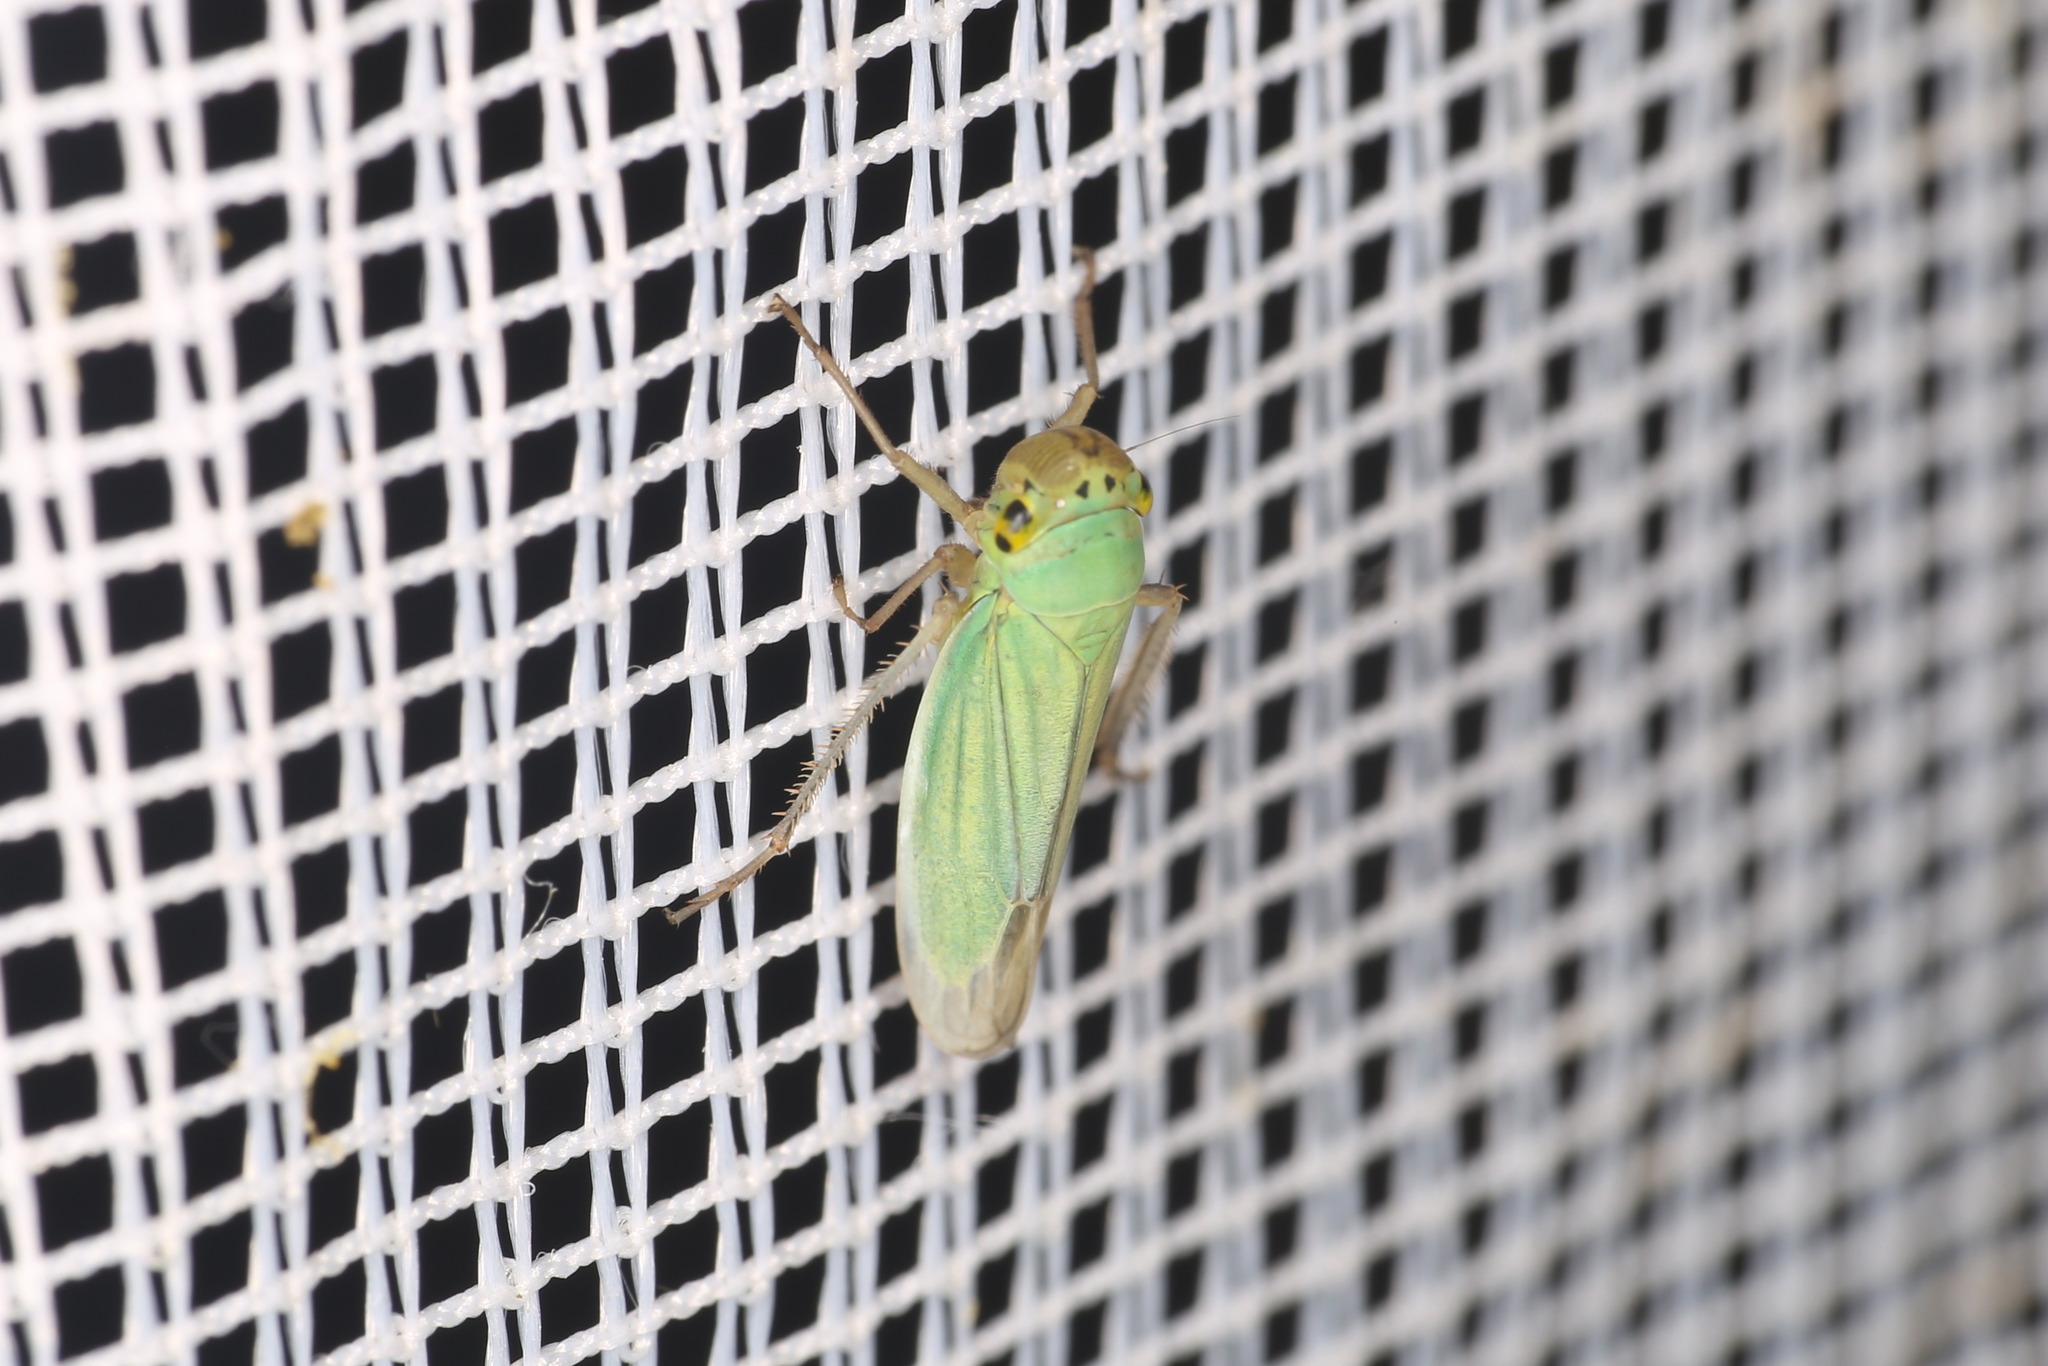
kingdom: Animalia
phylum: Arthropoda
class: Insecta
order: Hemiptera
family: Cicadellidae
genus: Cicadella
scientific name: Cicadella viridis
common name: Leafhopper
